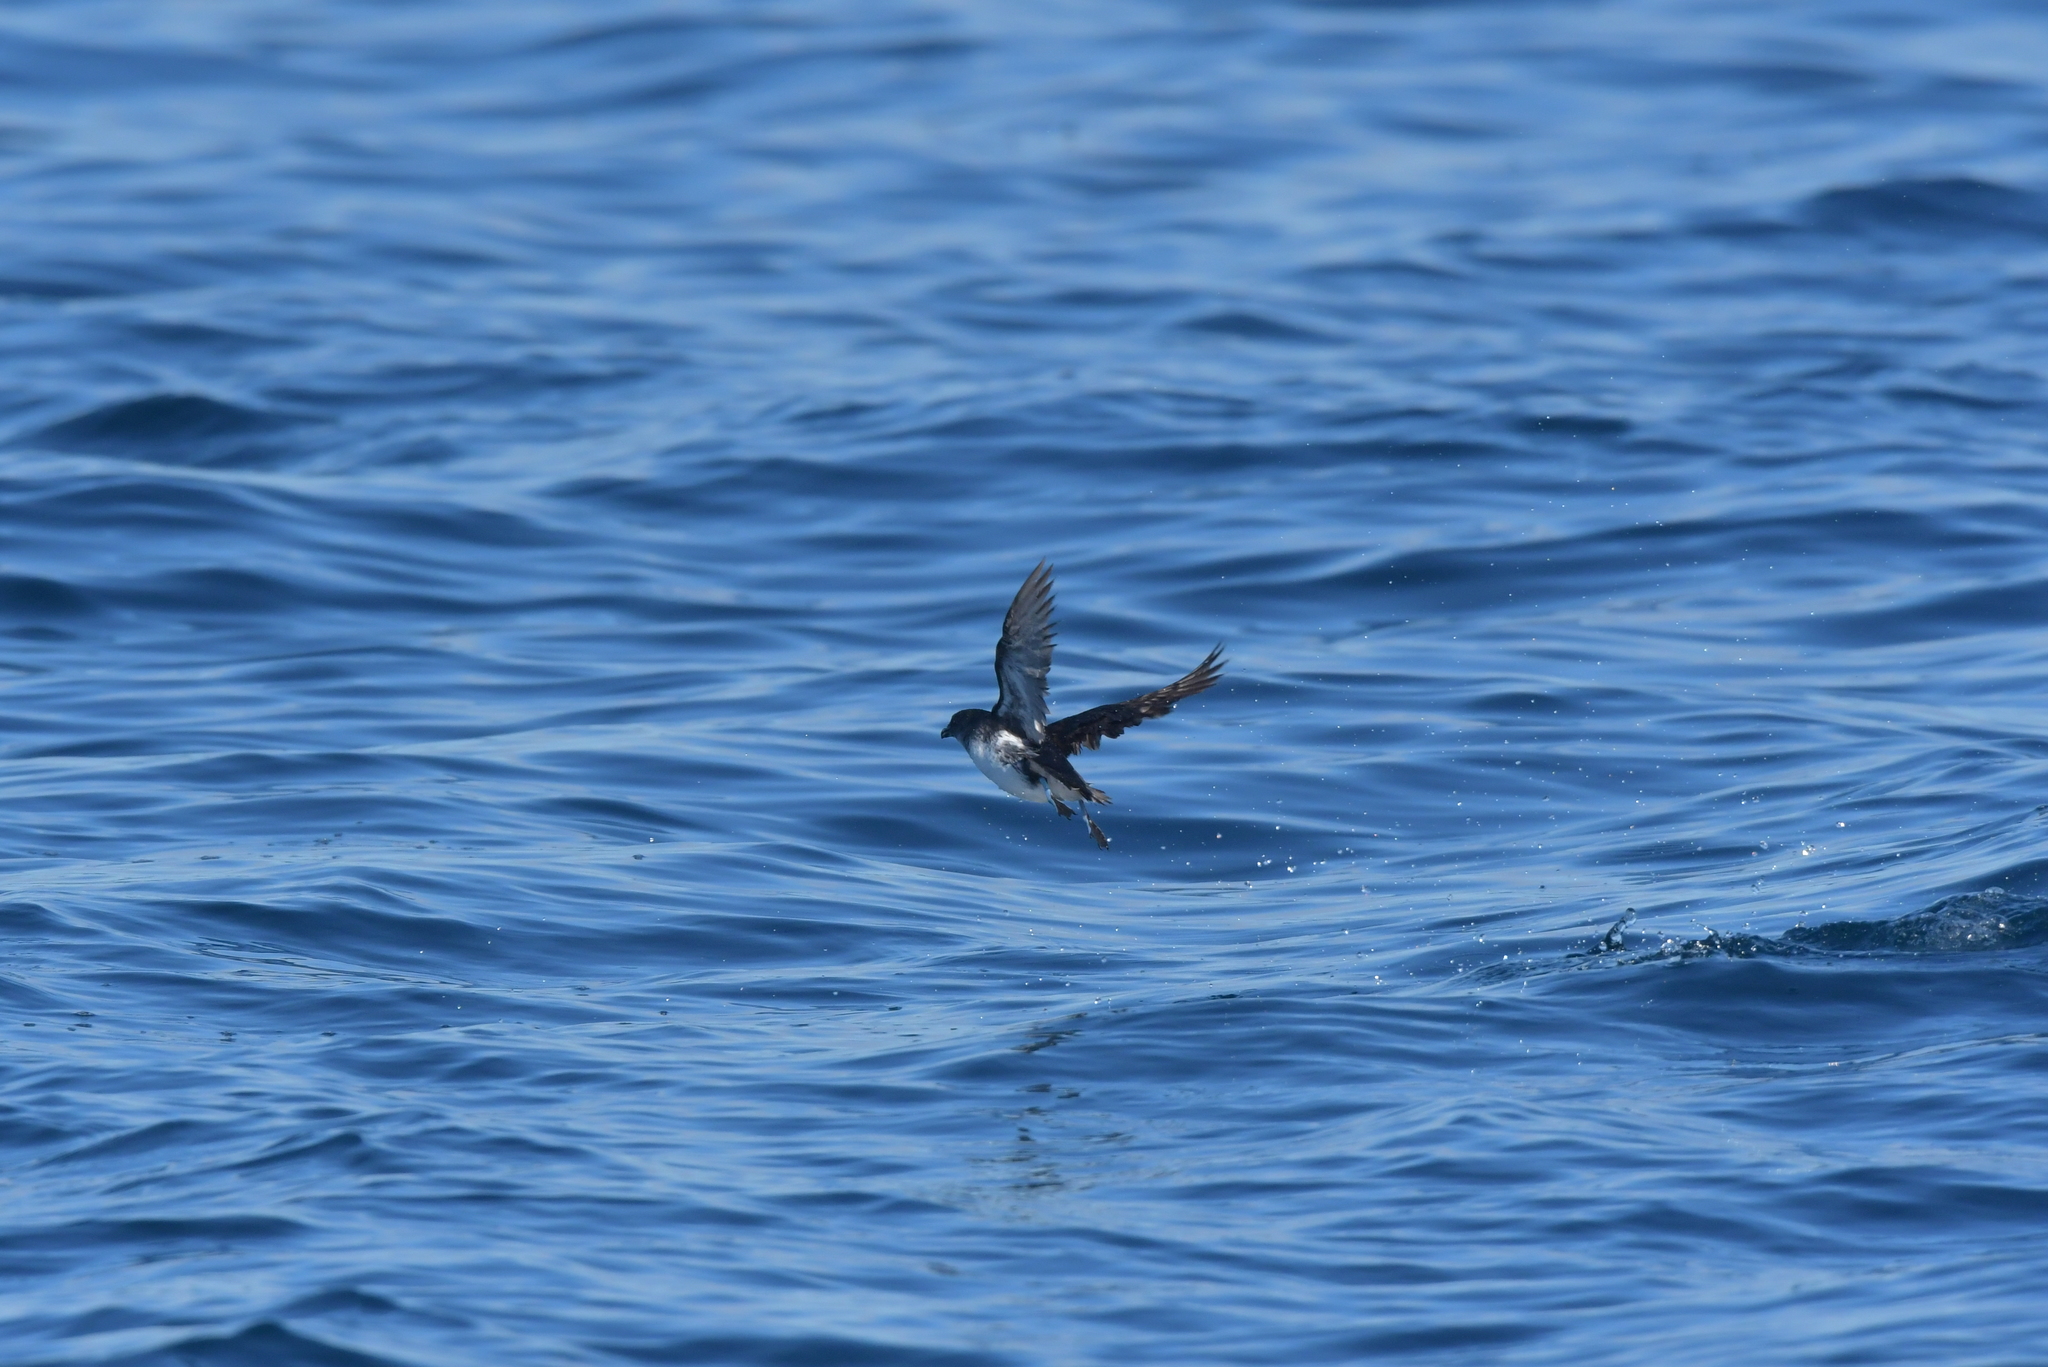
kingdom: Animalia
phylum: Chordata
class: Aves
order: Procellariiformes
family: Pelecanoididae
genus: Pelecanoides
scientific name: Pelecanoides urinatrix
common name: Common diving-petrel
